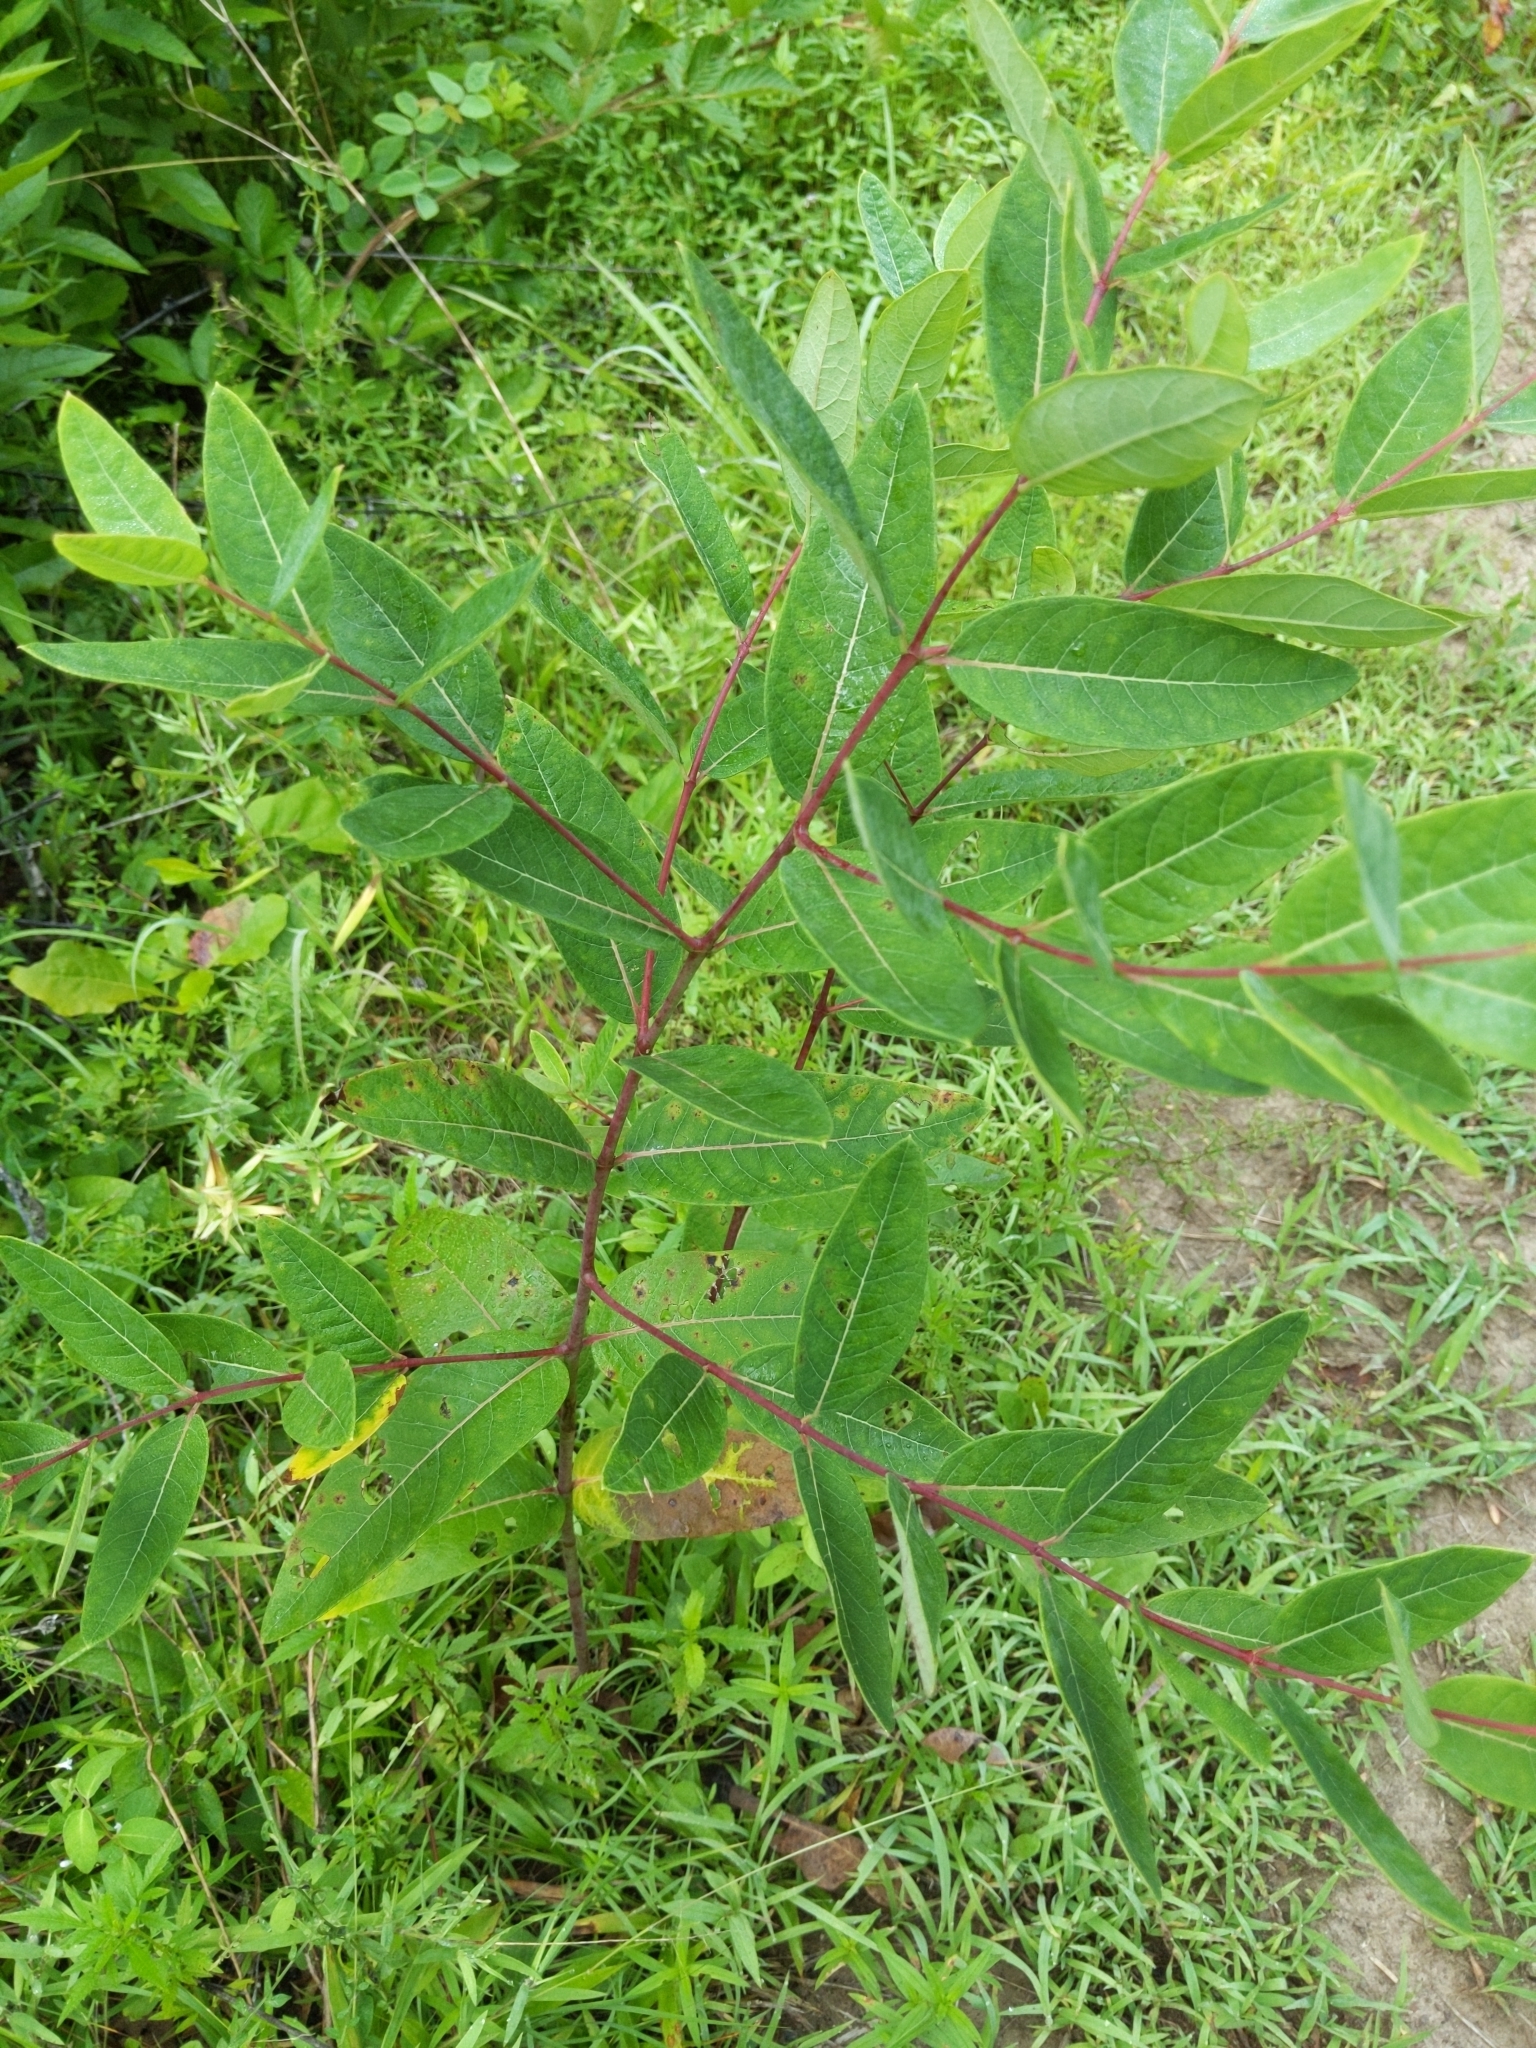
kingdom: Plantae
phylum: Tracheophyta
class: Magnoliopsida
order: Gentianales
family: Apocynaceae
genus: Apocynum
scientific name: Apocynum cannabinum
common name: Hemp dogbane
